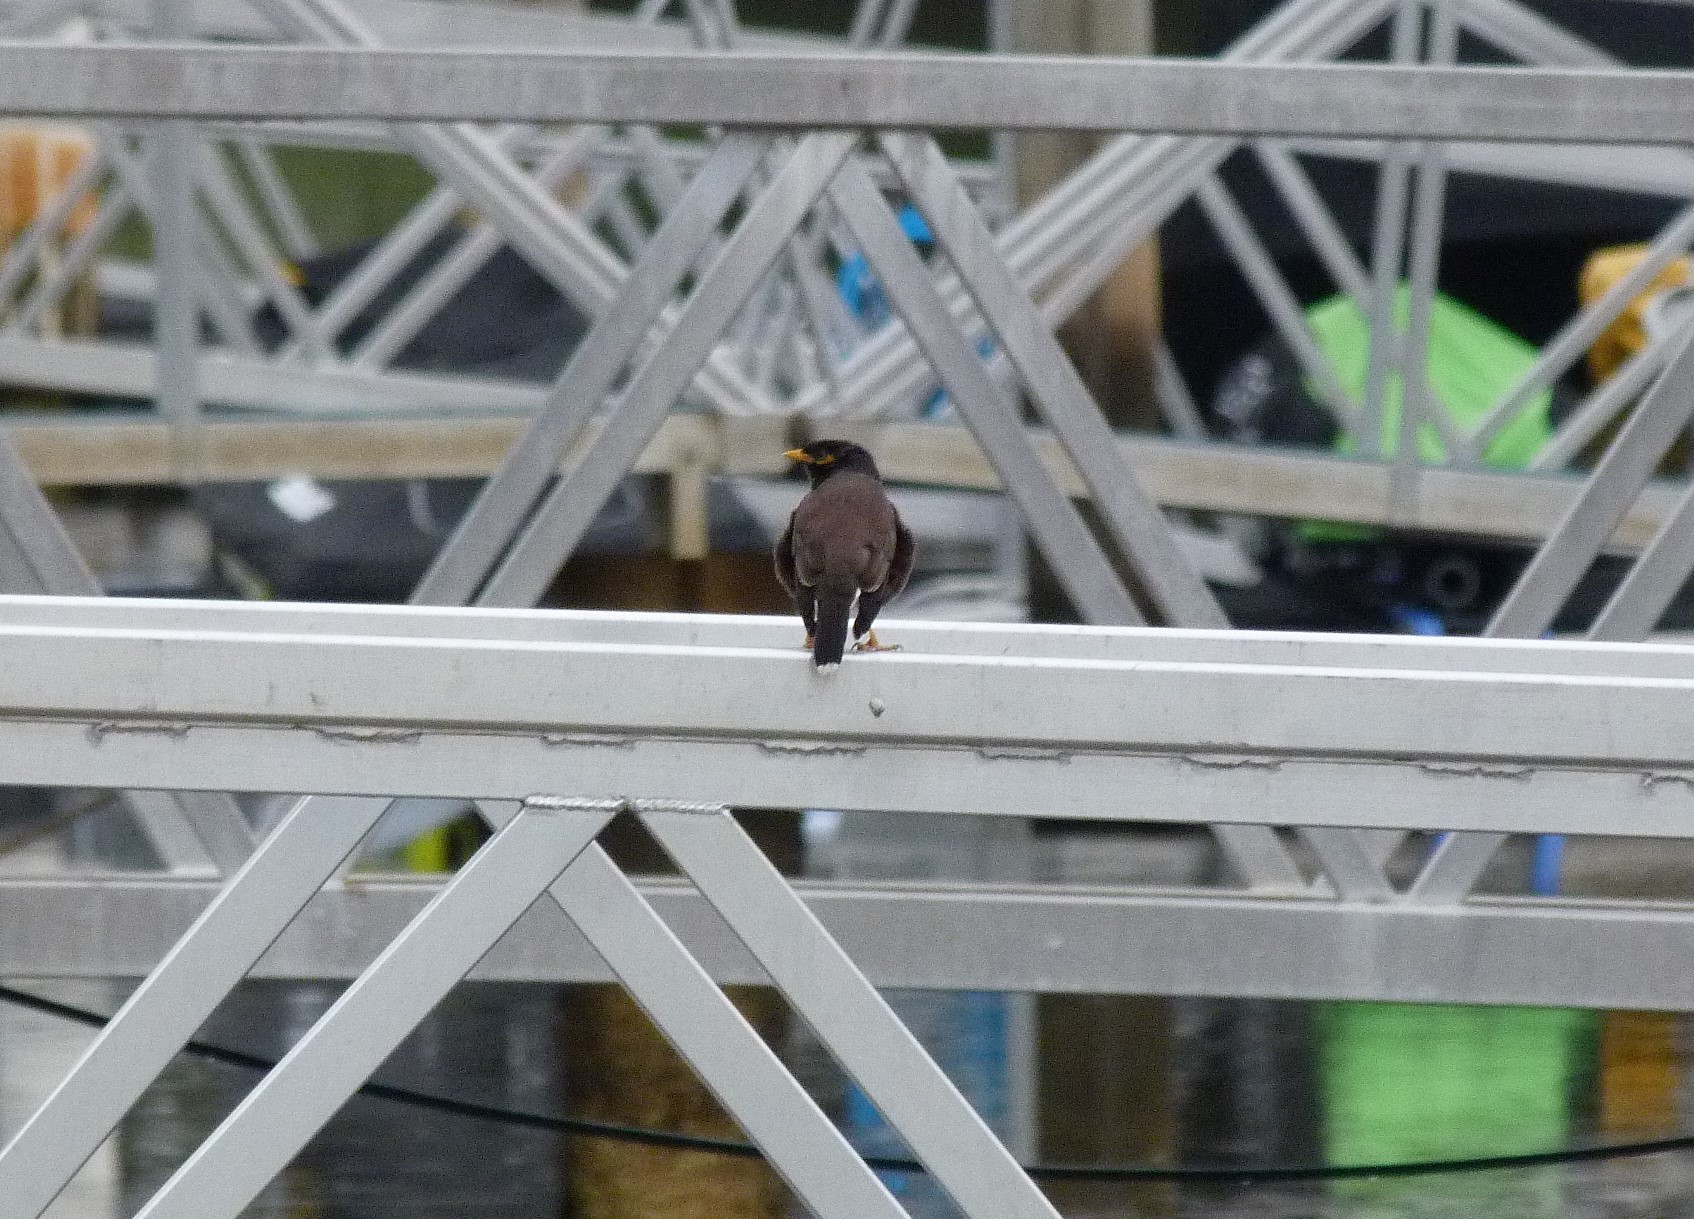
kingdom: Animalia
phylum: Chordata
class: Aves
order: Passeriformes
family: Sturnidae
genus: Acridotheres
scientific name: Acridotheres tristis
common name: Common myna
